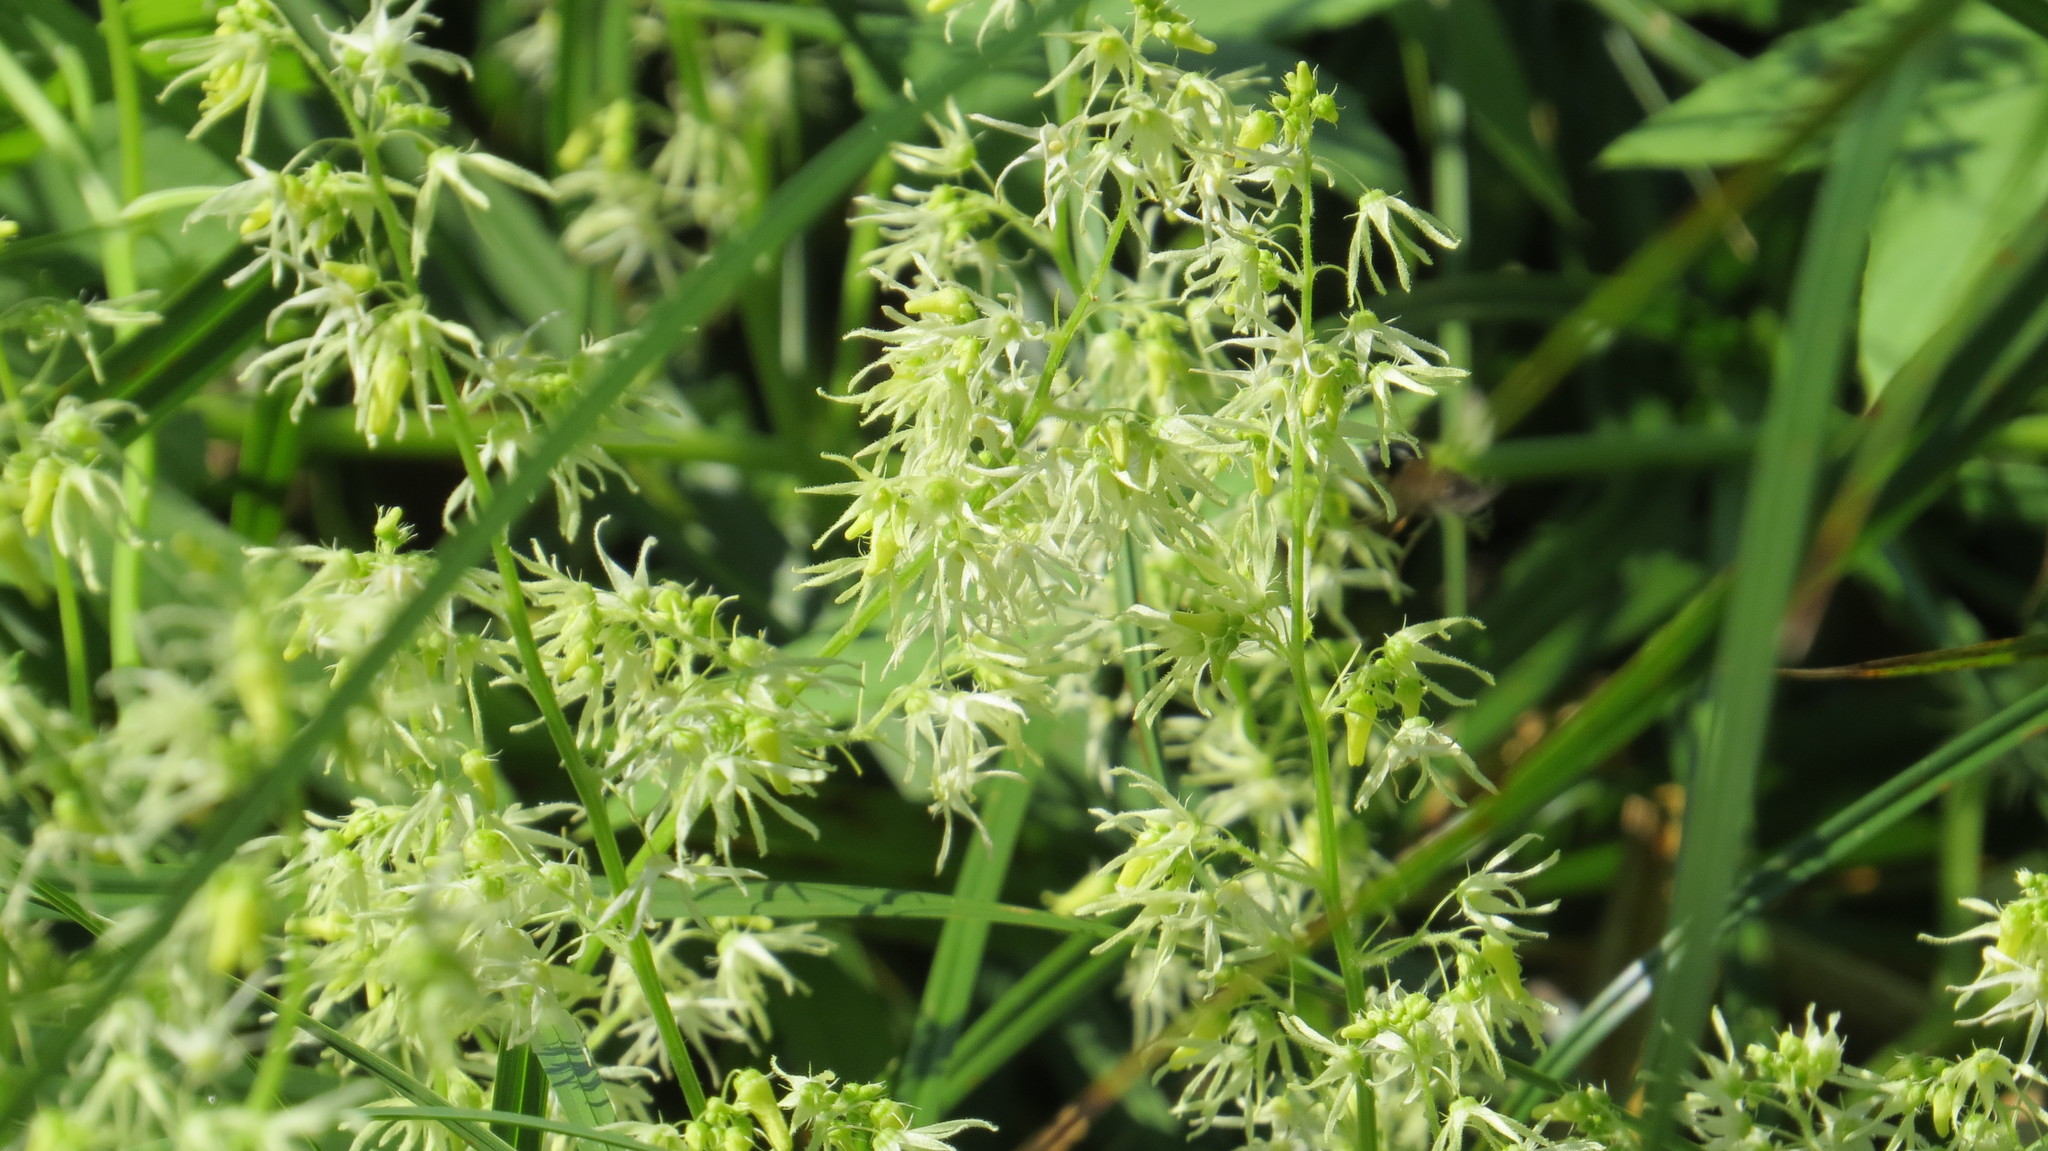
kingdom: Plantae
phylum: Tracheophyta
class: Magnoliopsida
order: Cucurbitales
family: Cucurbitaceae
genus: Echinocystis
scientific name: Echinocystis lobata
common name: Wild cucumber
